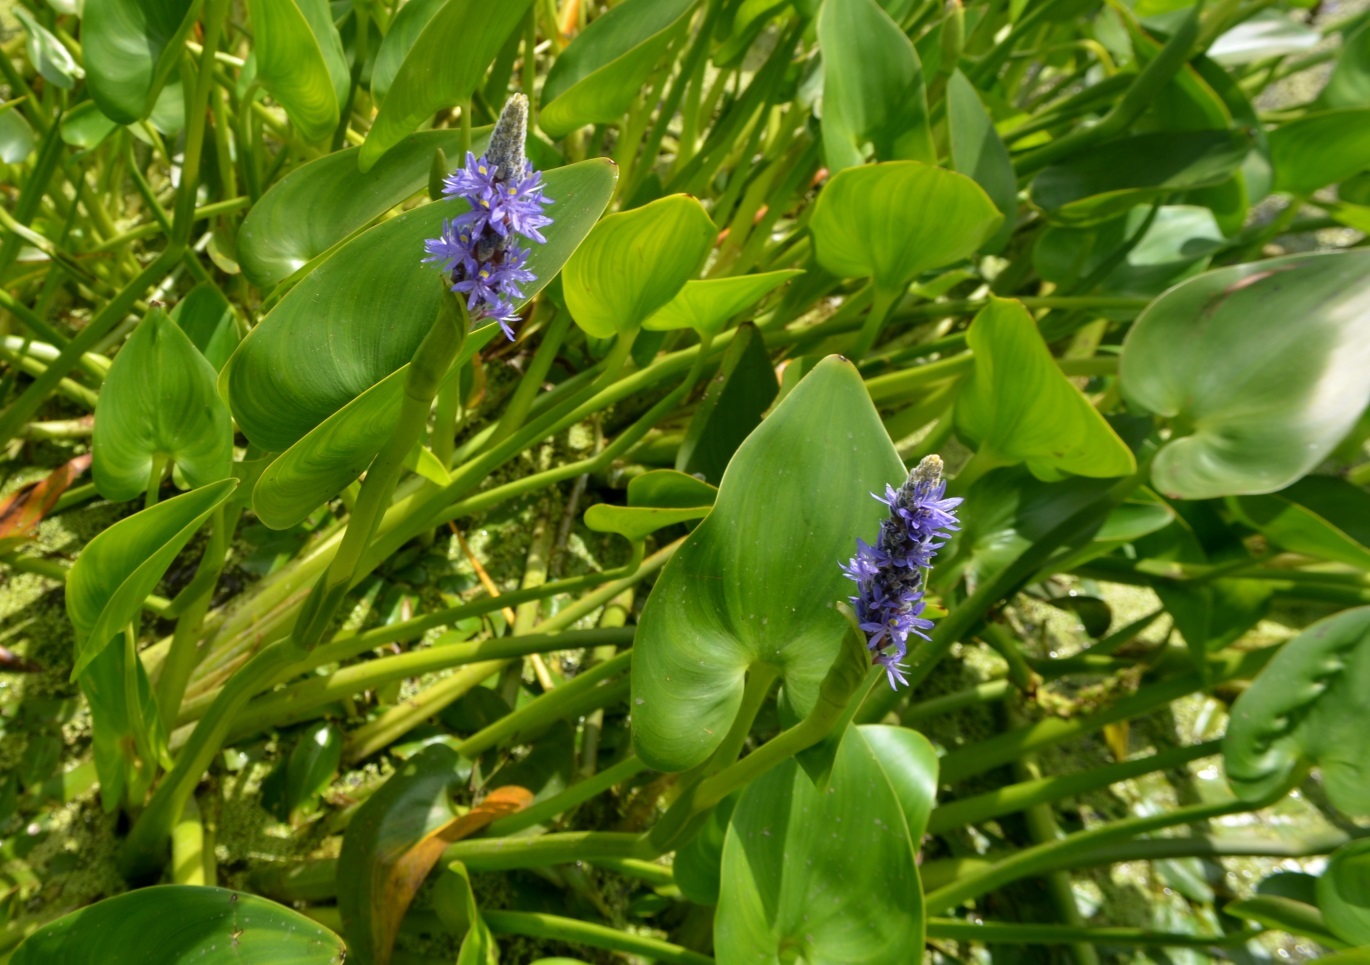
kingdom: Plantae
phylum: Tracheophyta
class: Liliopsida
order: Commelinales
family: Pontederiaceae
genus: Pontederia
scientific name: Pontederia cordata
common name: Pickerelweed
